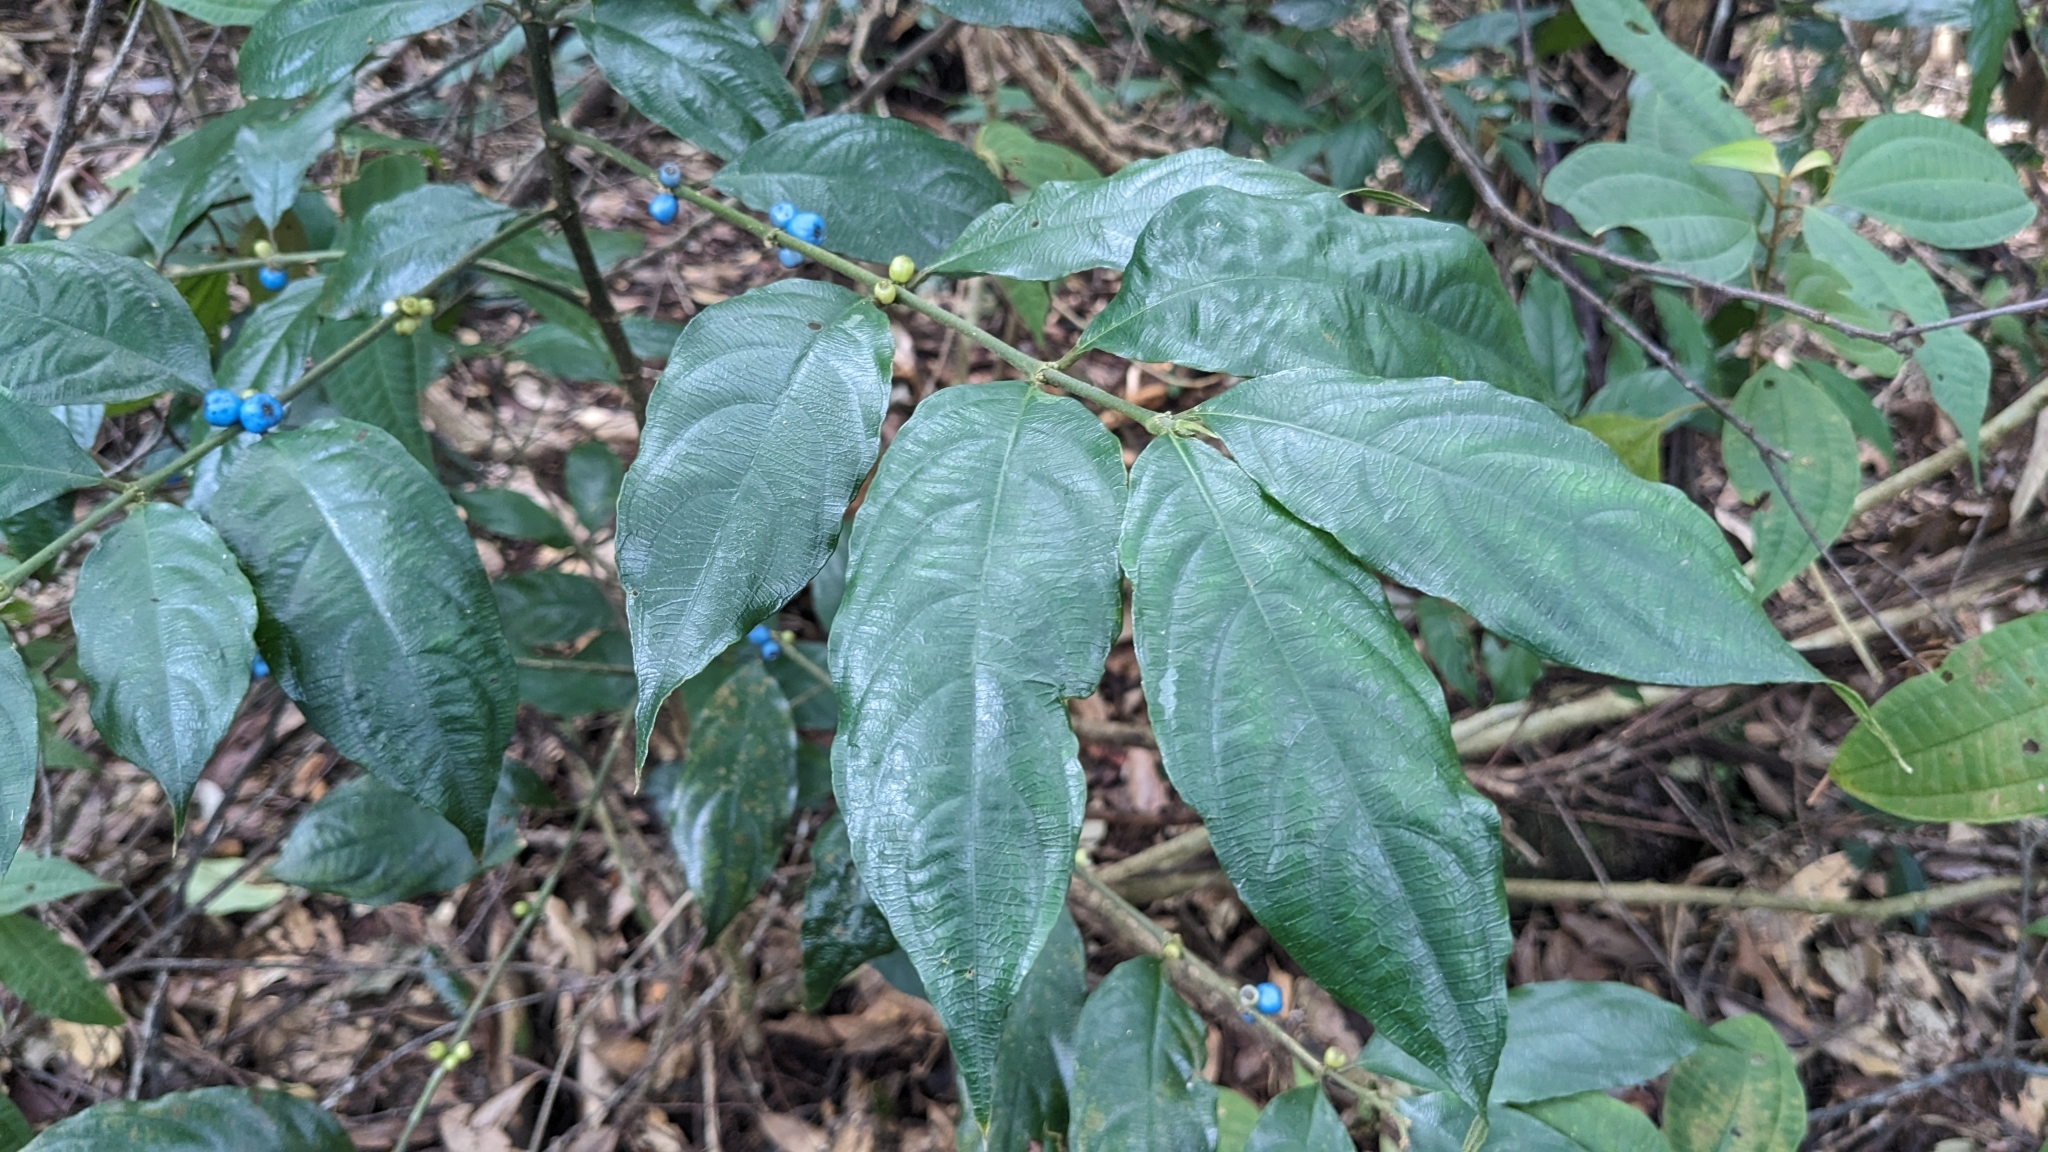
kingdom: Plantae
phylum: Tracheophyta
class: Magnoliopsida
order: Gentianales
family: Rubiaceae
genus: Lasianthus
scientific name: Lasianthus fordii
